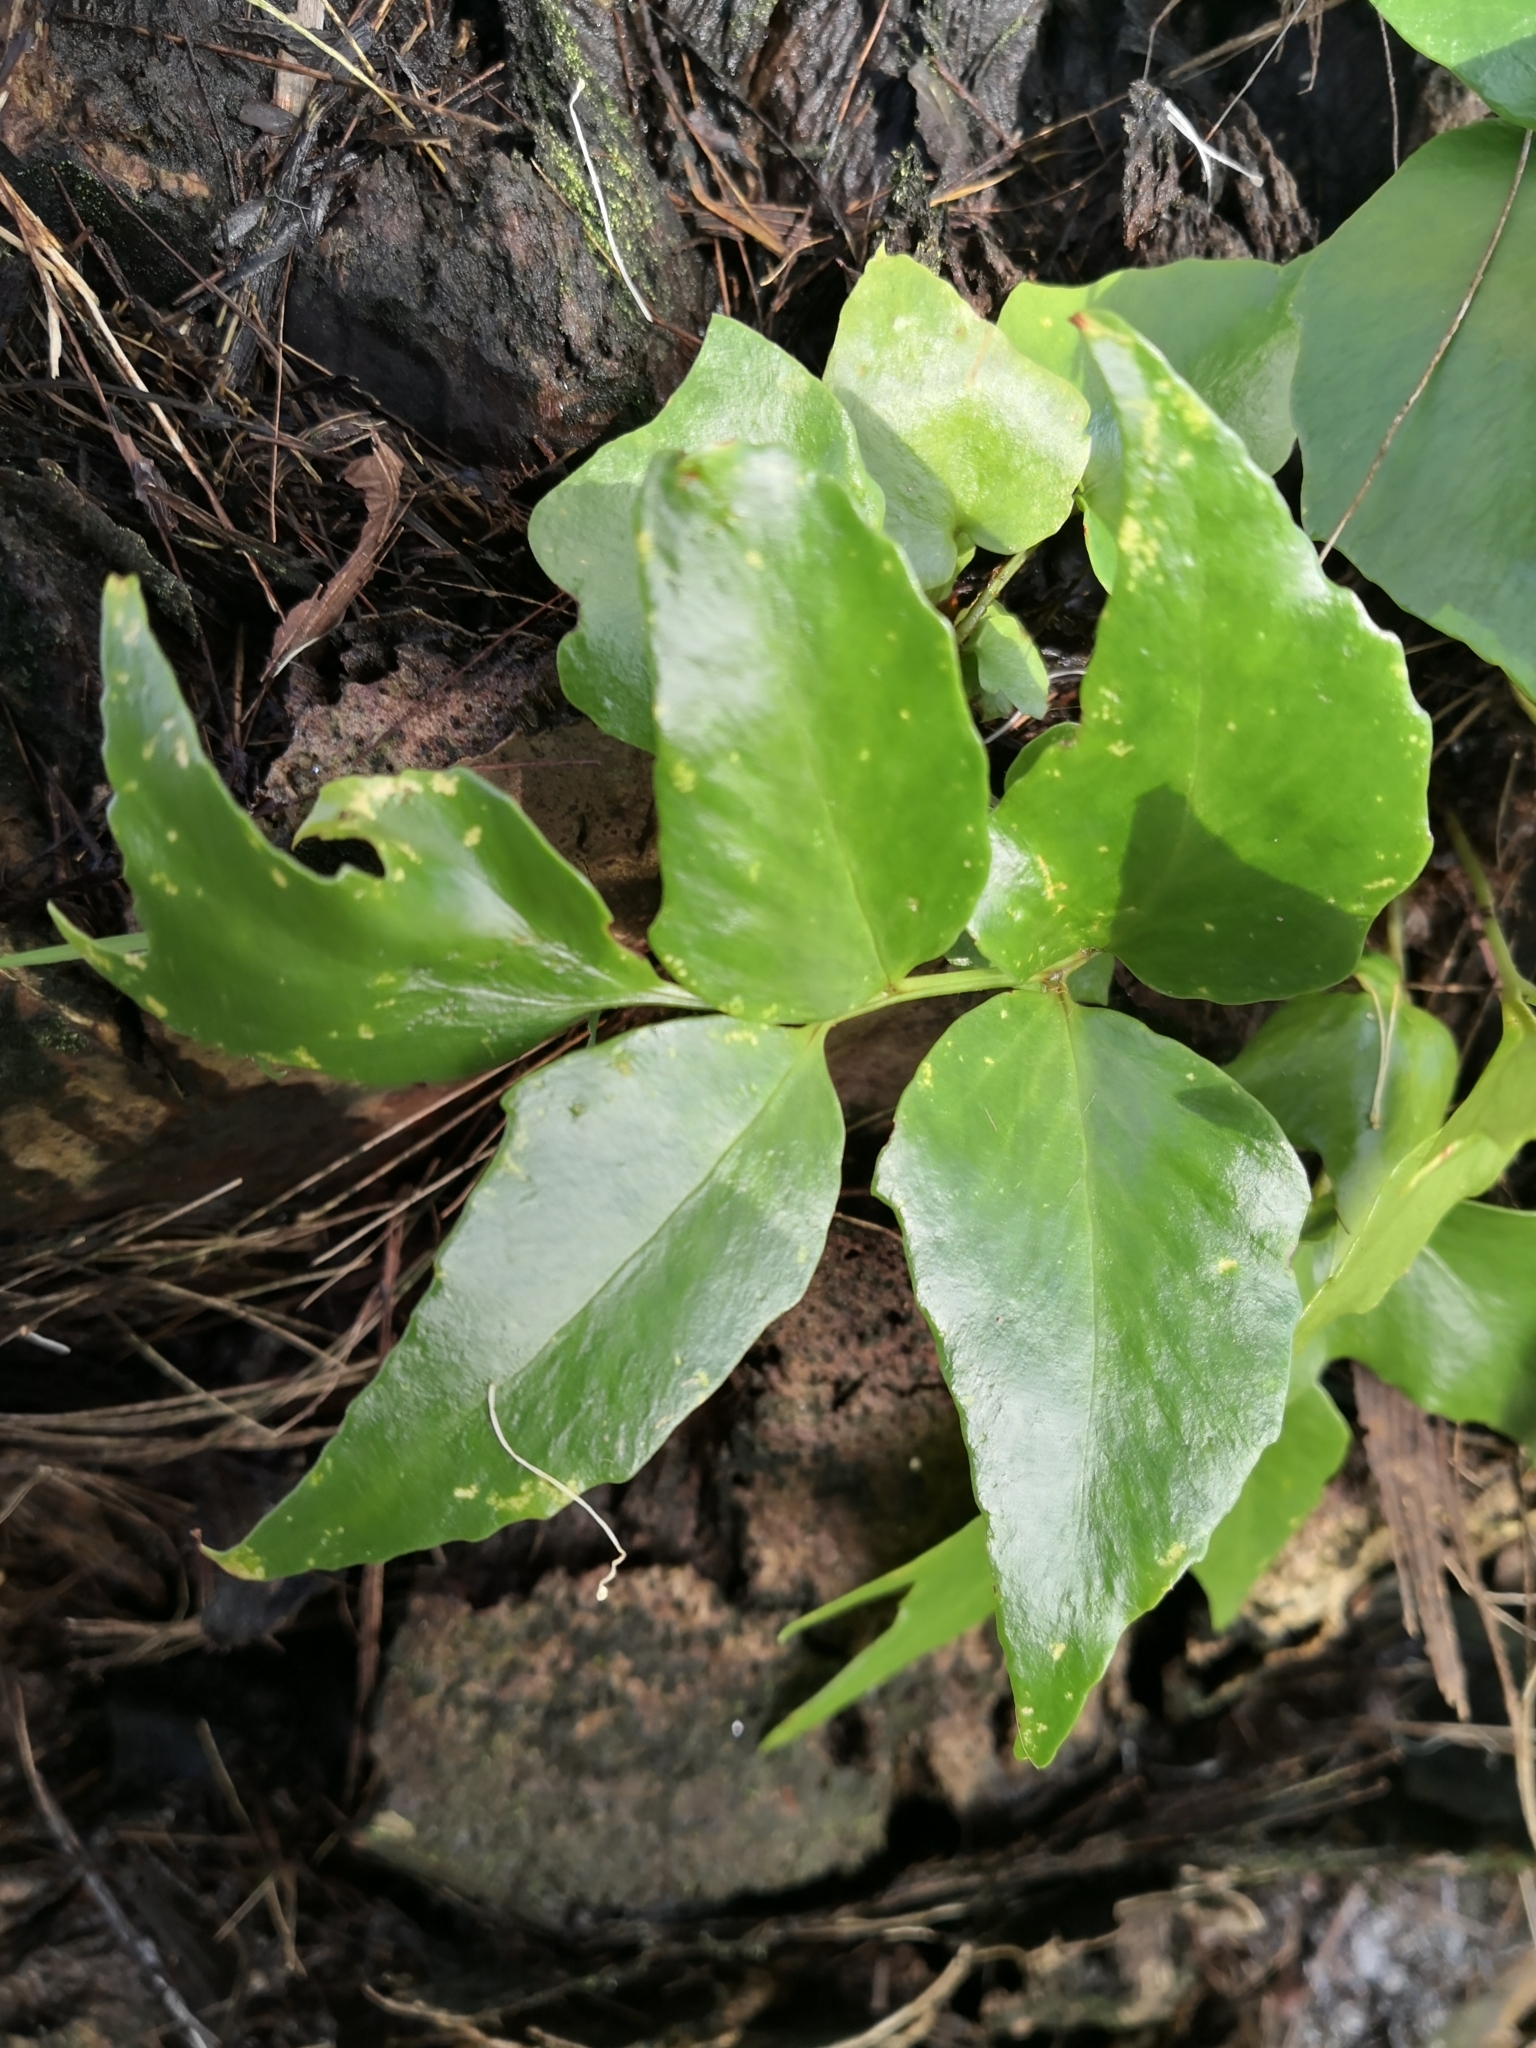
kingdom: Plantae
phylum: Tracheophyta
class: Polypodiopsida
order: Polypodiales
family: Dryopteridaceae
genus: Cyrtomium
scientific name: Cyrtomium falcatum
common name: House holly-fern
